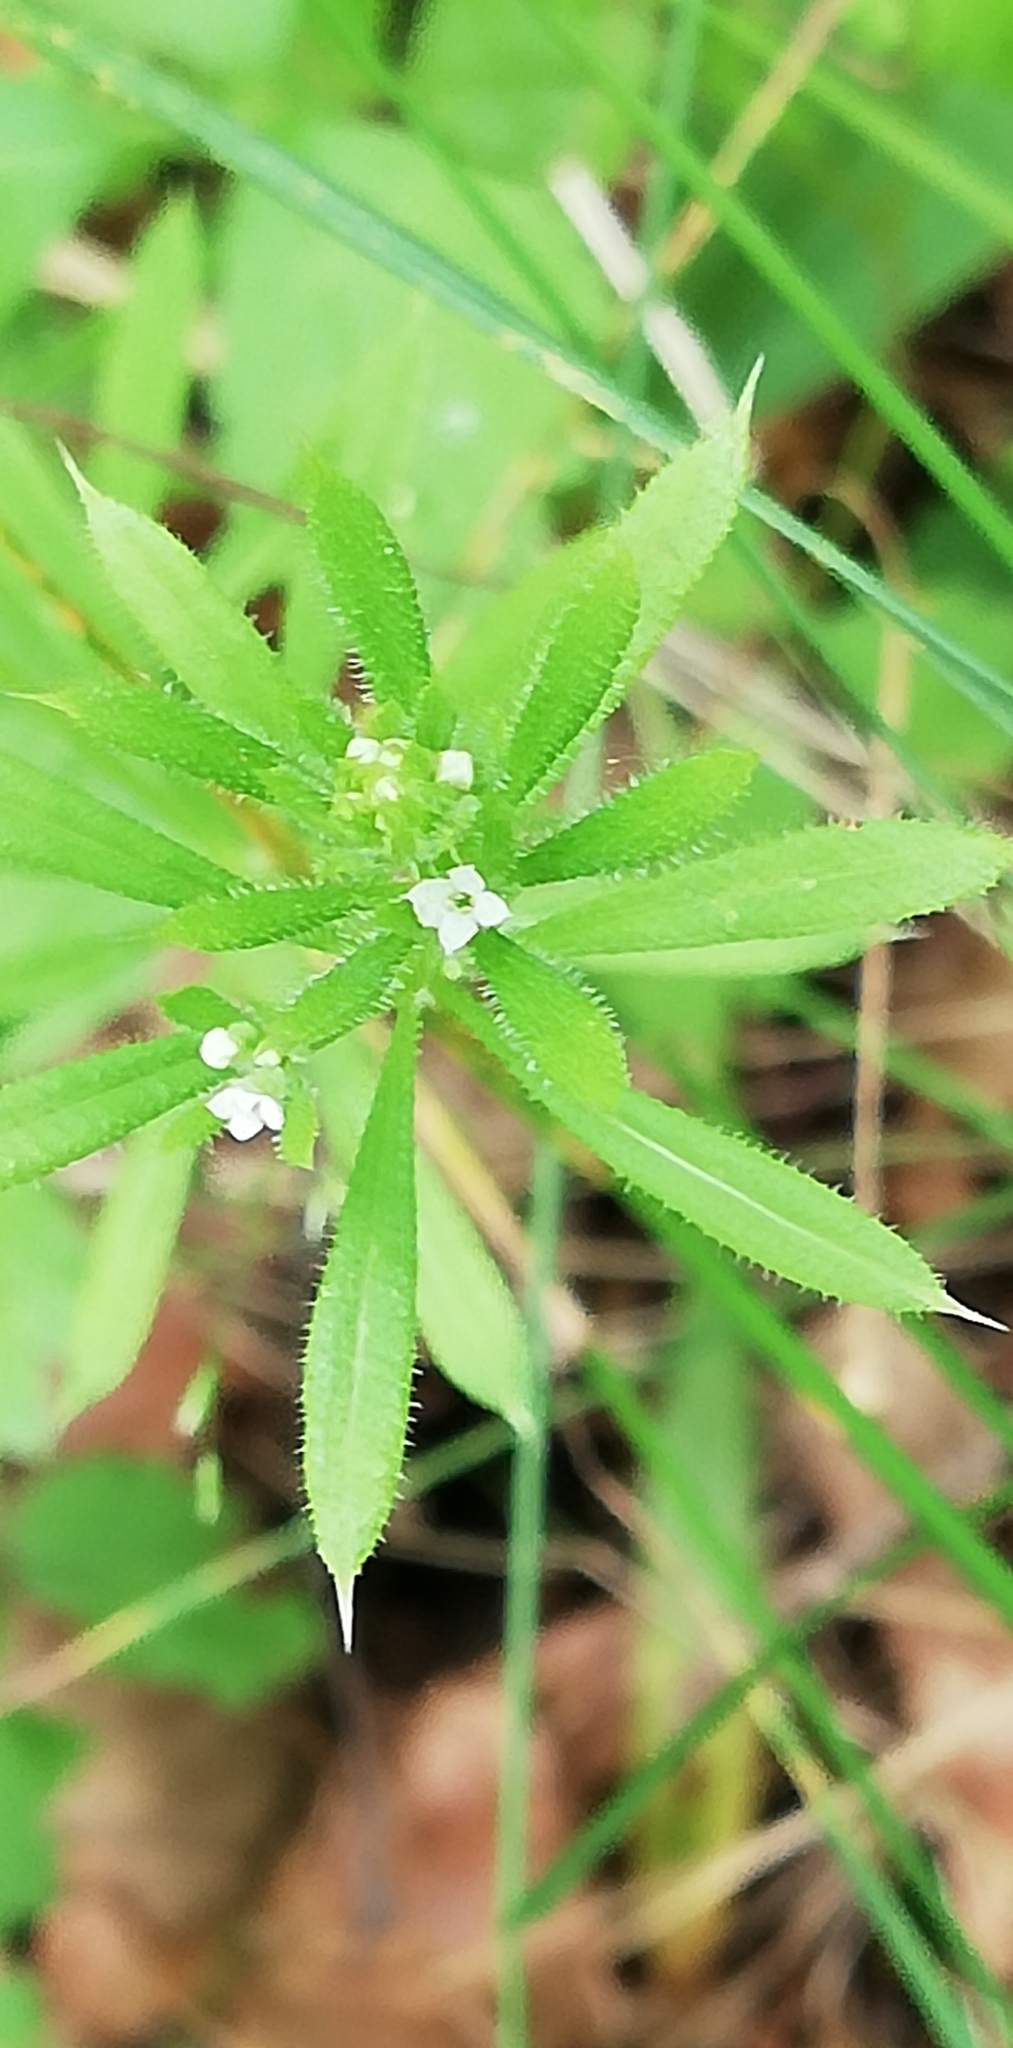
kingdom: Plantae
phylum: Tracheophyta
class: Magnoliopsida
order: Gentianales
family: Rubiaceae
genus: Galium
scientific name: Galium aparine
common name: Cleavers
